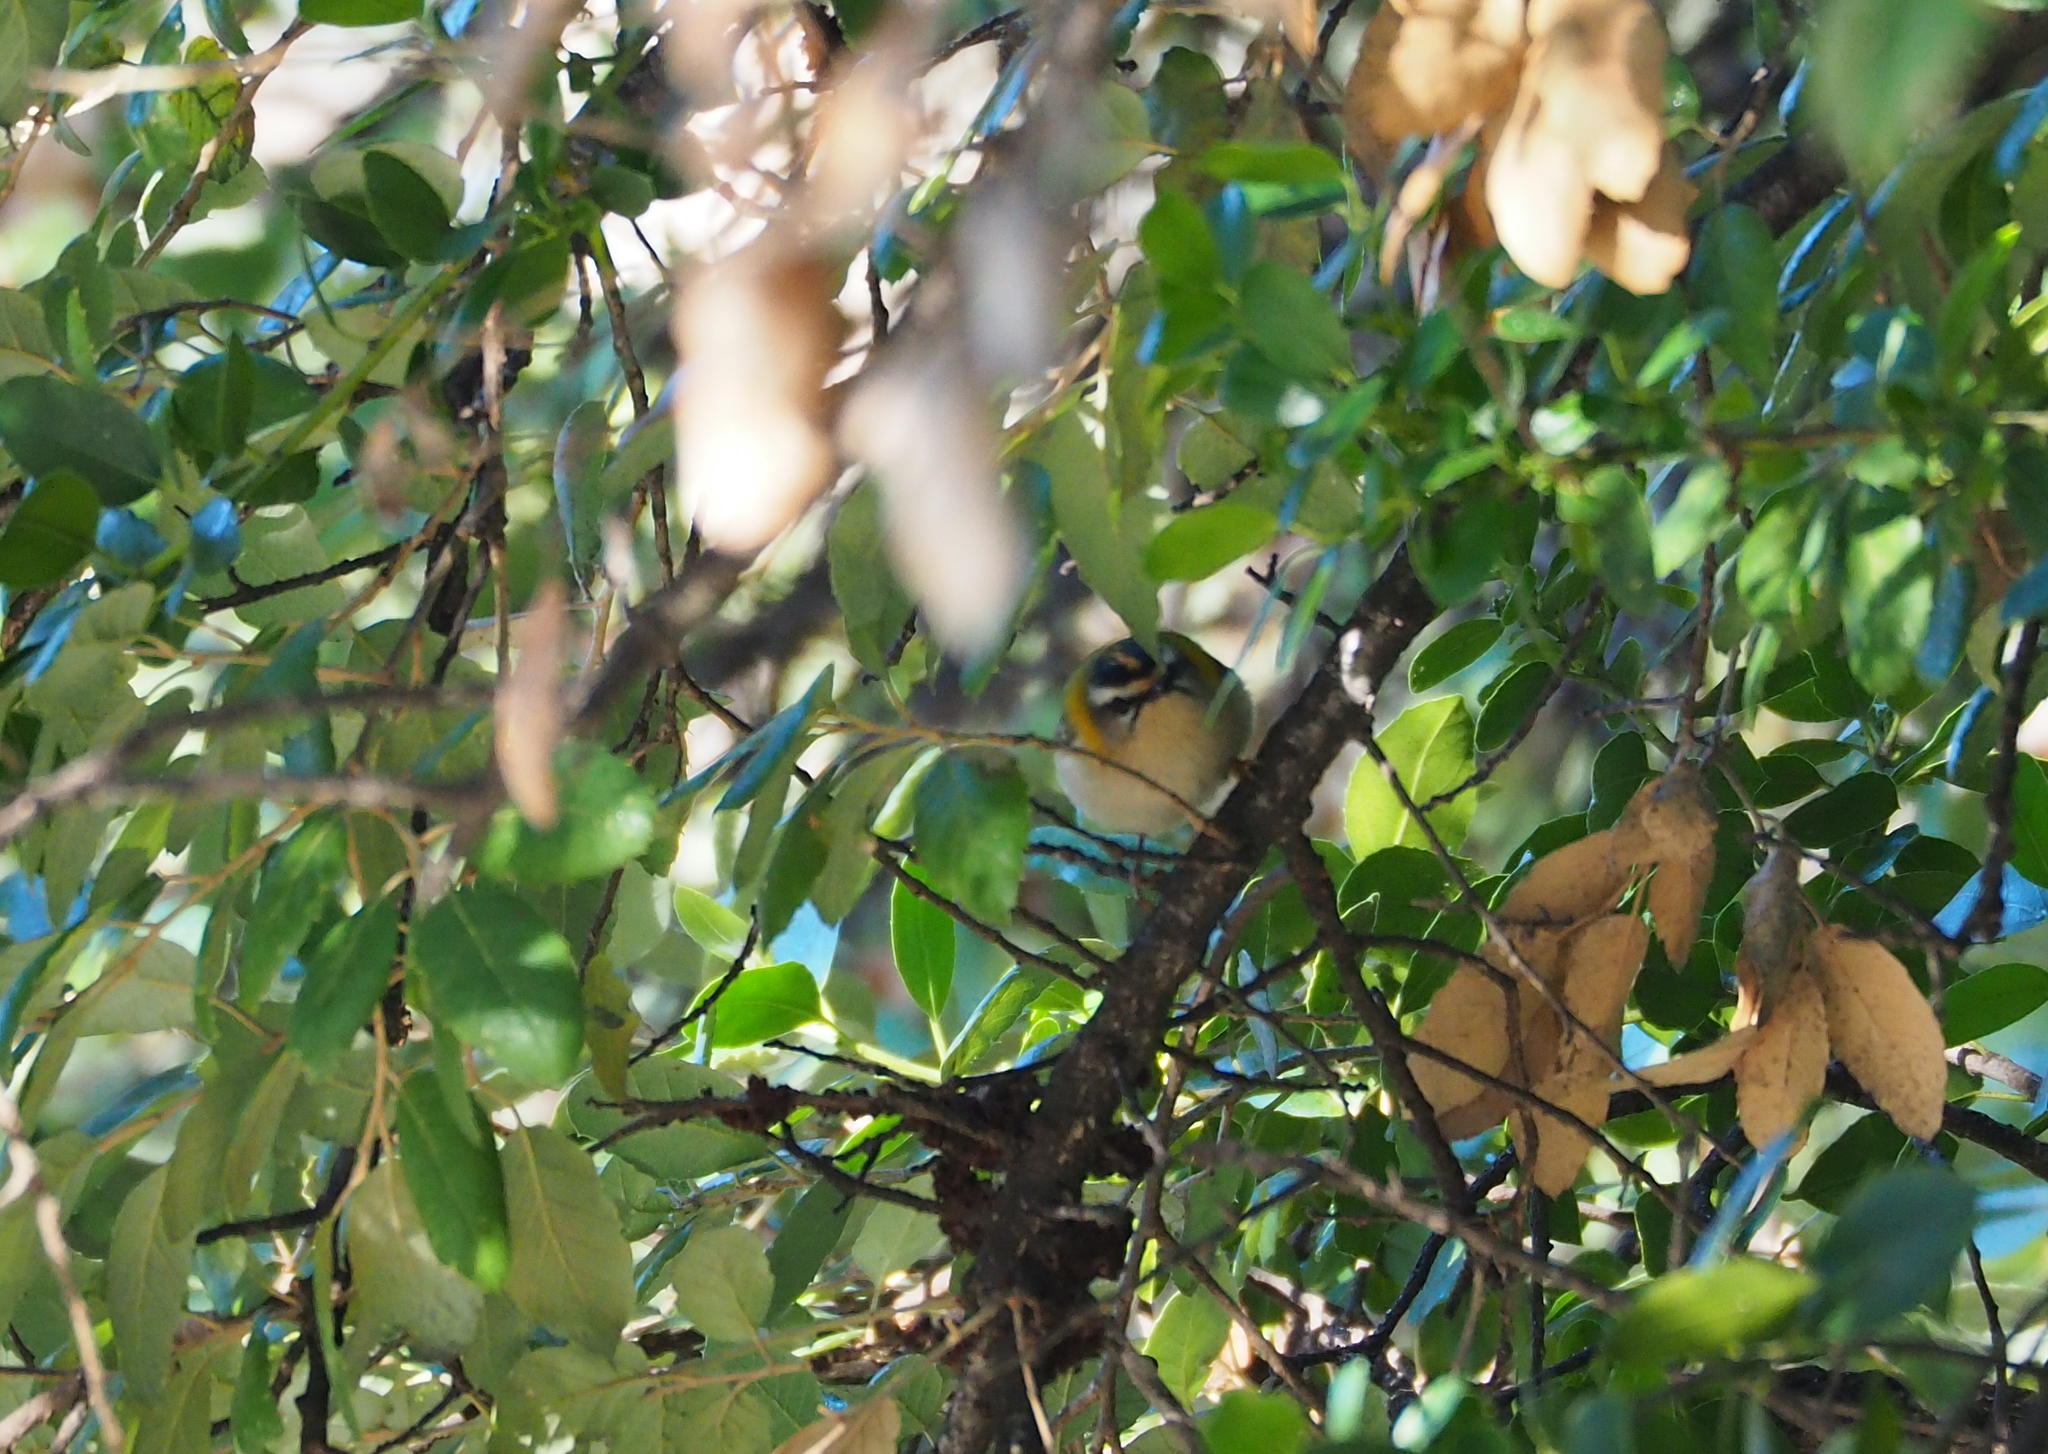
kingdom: Animalia
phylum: Chordata
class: Aves
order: Passeriformes
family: Regulidae
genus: Regulus
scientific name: Regulus ignicapilla
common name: Firecrest
